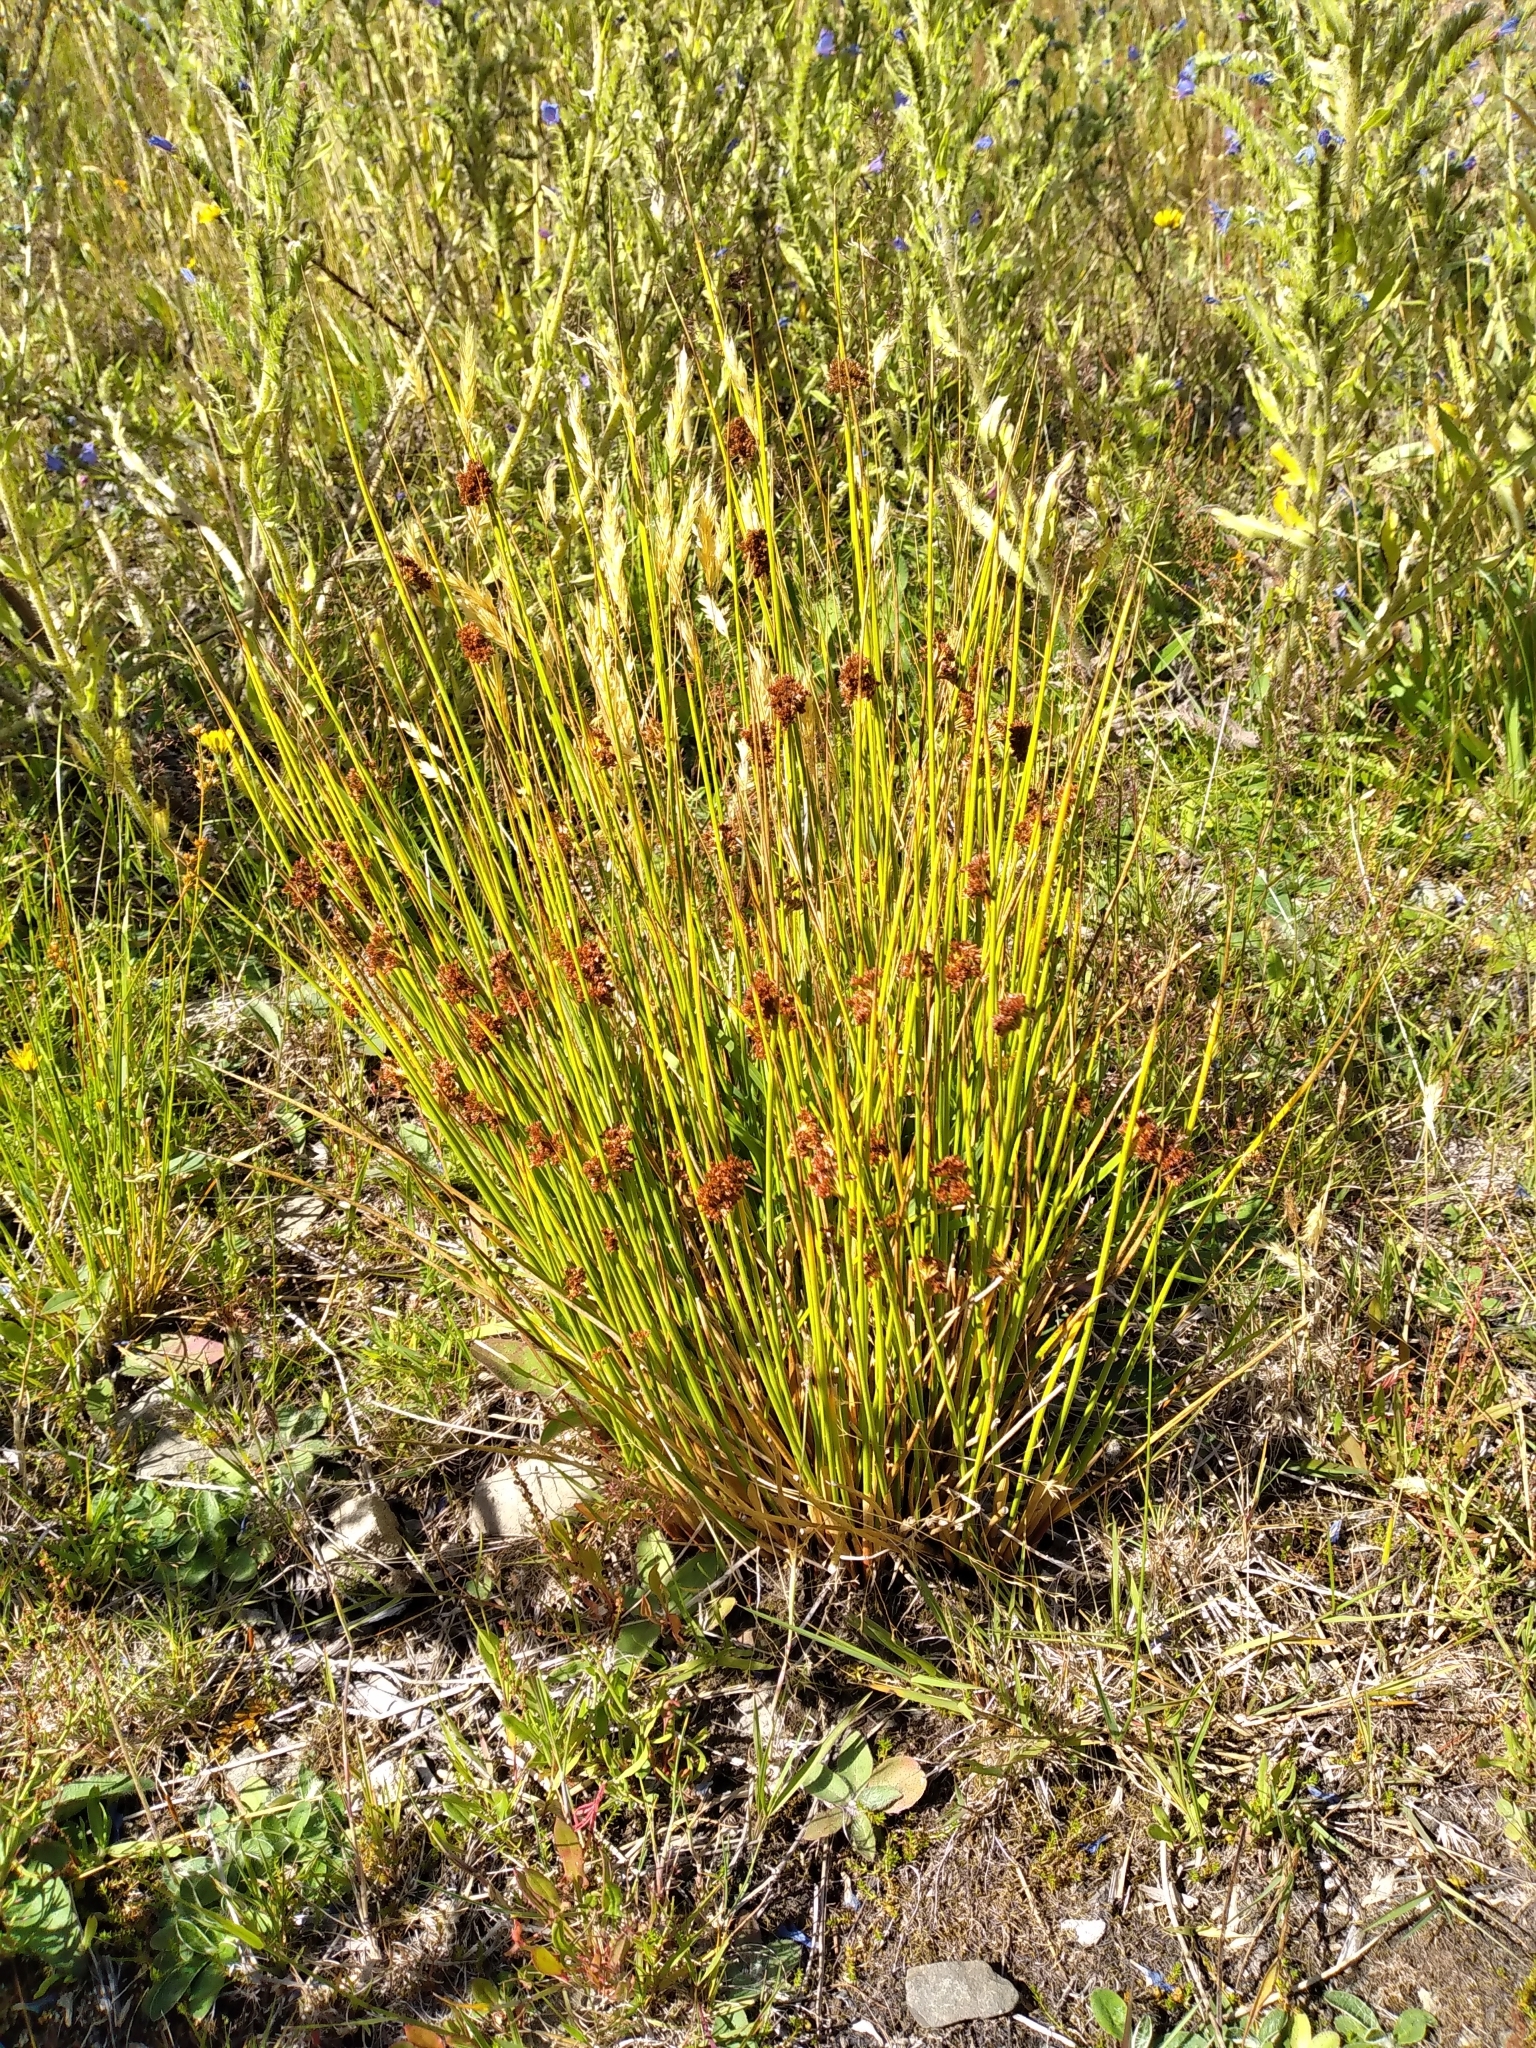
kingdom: Plantae
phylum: Tracheophyta
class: Liliopsida
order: Poales
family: Juncaceae
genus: Juncus
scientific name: Juncus effusus
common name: Soft rush
